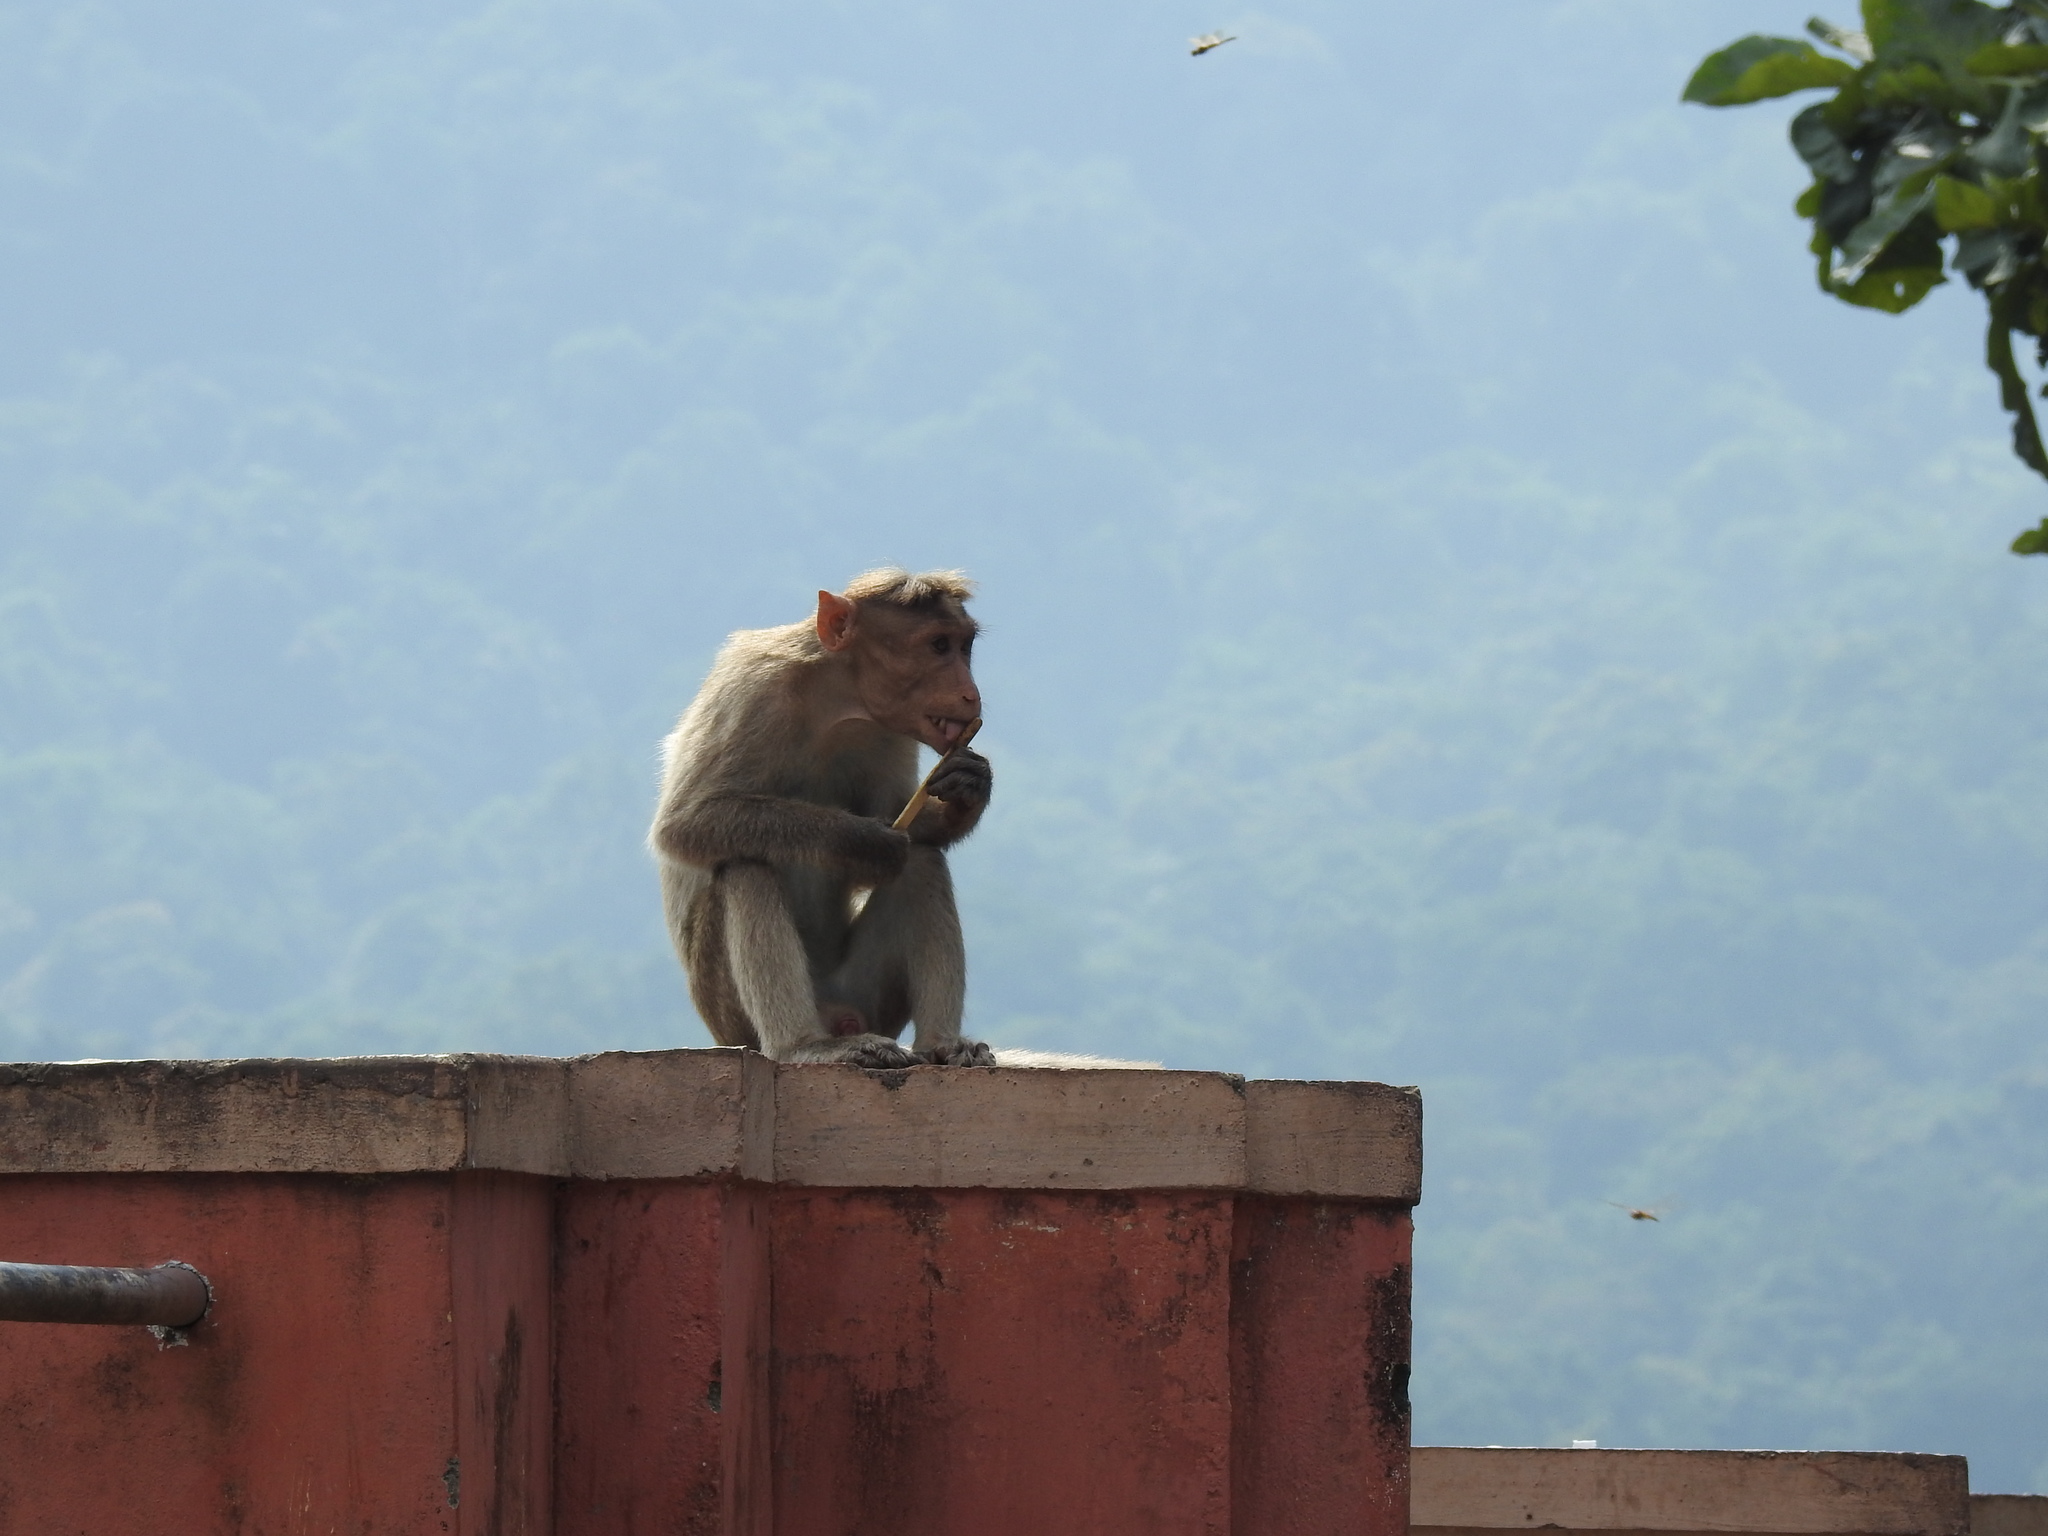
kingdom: Animalia
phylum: Chordata
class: Mammalia
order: Primates
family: Cercopithecidae
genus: Macaca
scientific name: Macaca radiata
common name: Bonnet macaque
